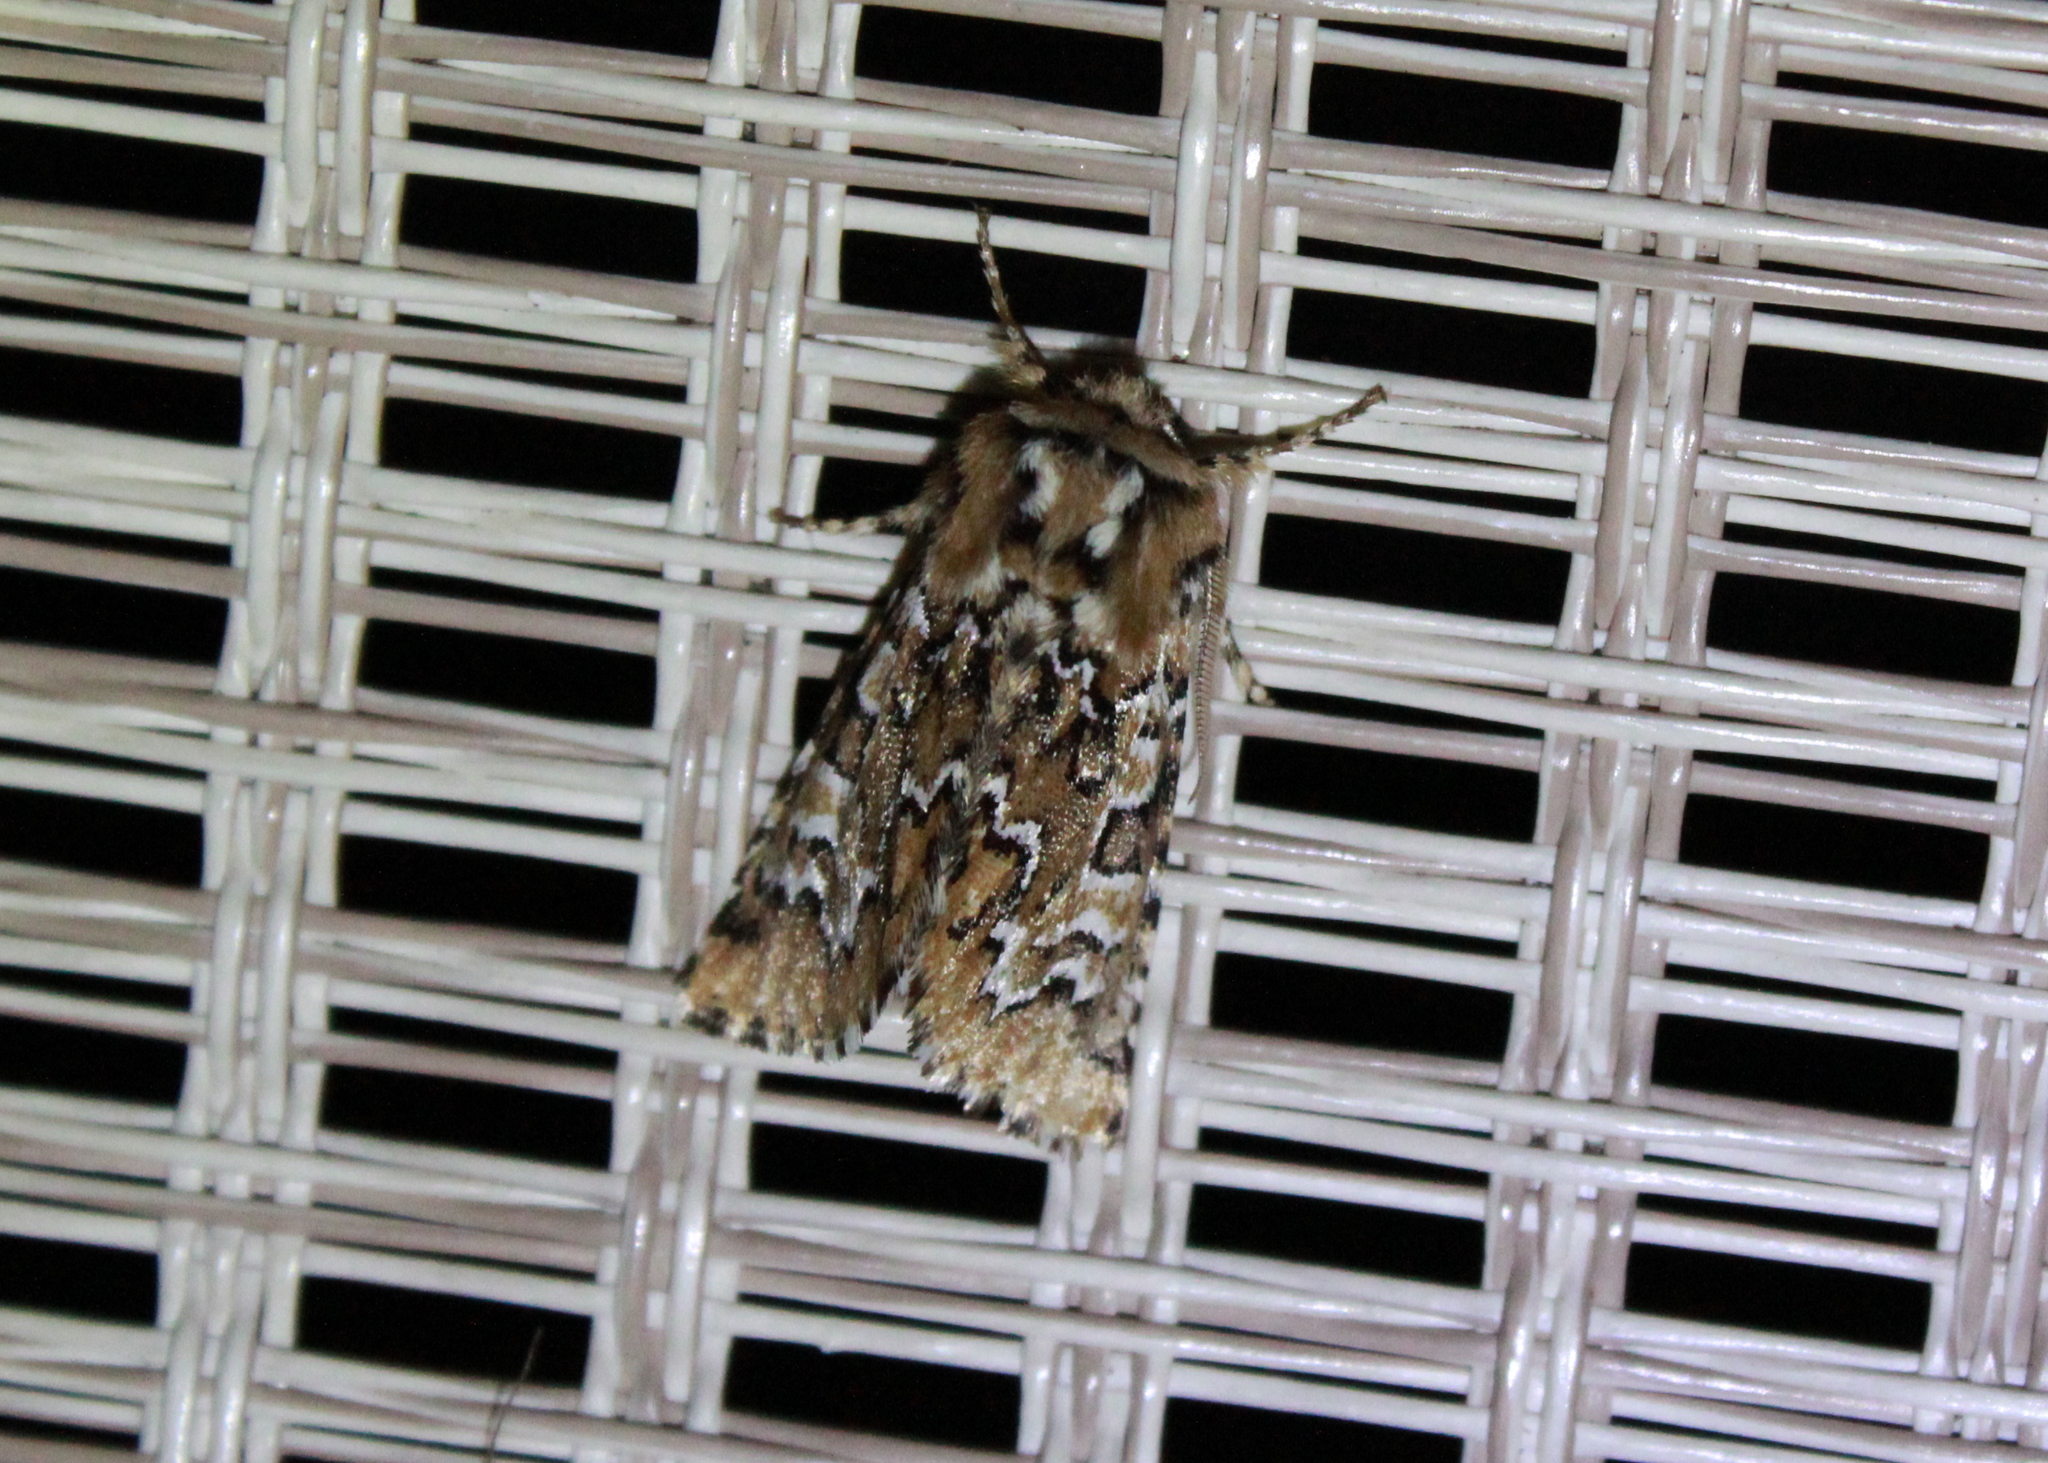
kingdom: Animalia
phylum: Arthropoda
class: Insecta
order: Lepidoptera
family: Noctuidae
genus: Feralia
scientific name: Feralia jocosa
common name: Joker
